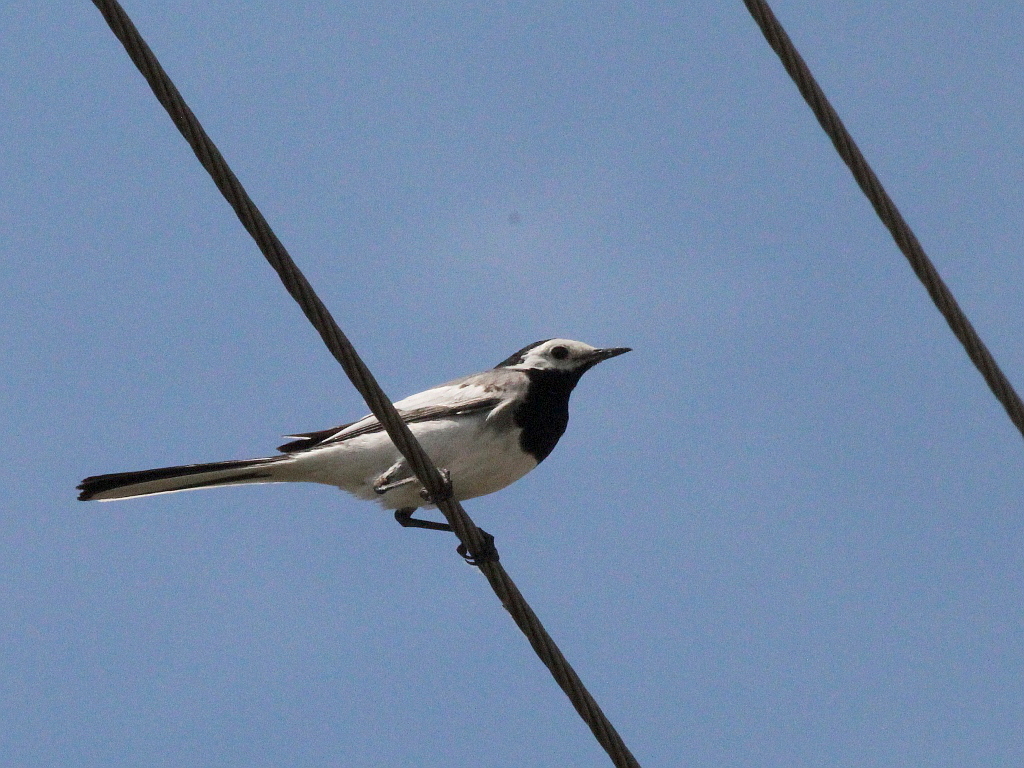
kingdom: Animalia
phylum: Chordata
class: Aves
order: Passeriformes
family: Motacillidae
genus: Motacilla
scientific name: Motacilla alba
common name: White wagtail
